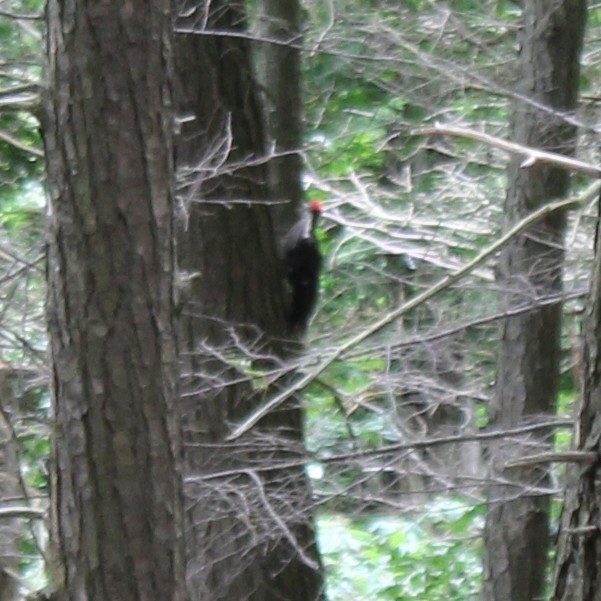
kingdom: Animalia
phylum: Chordata
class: Aves
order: Piciformes
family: Picidae
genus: Dryocopus
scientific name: Dryocopus pileatus
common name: Pileated woodpecker
